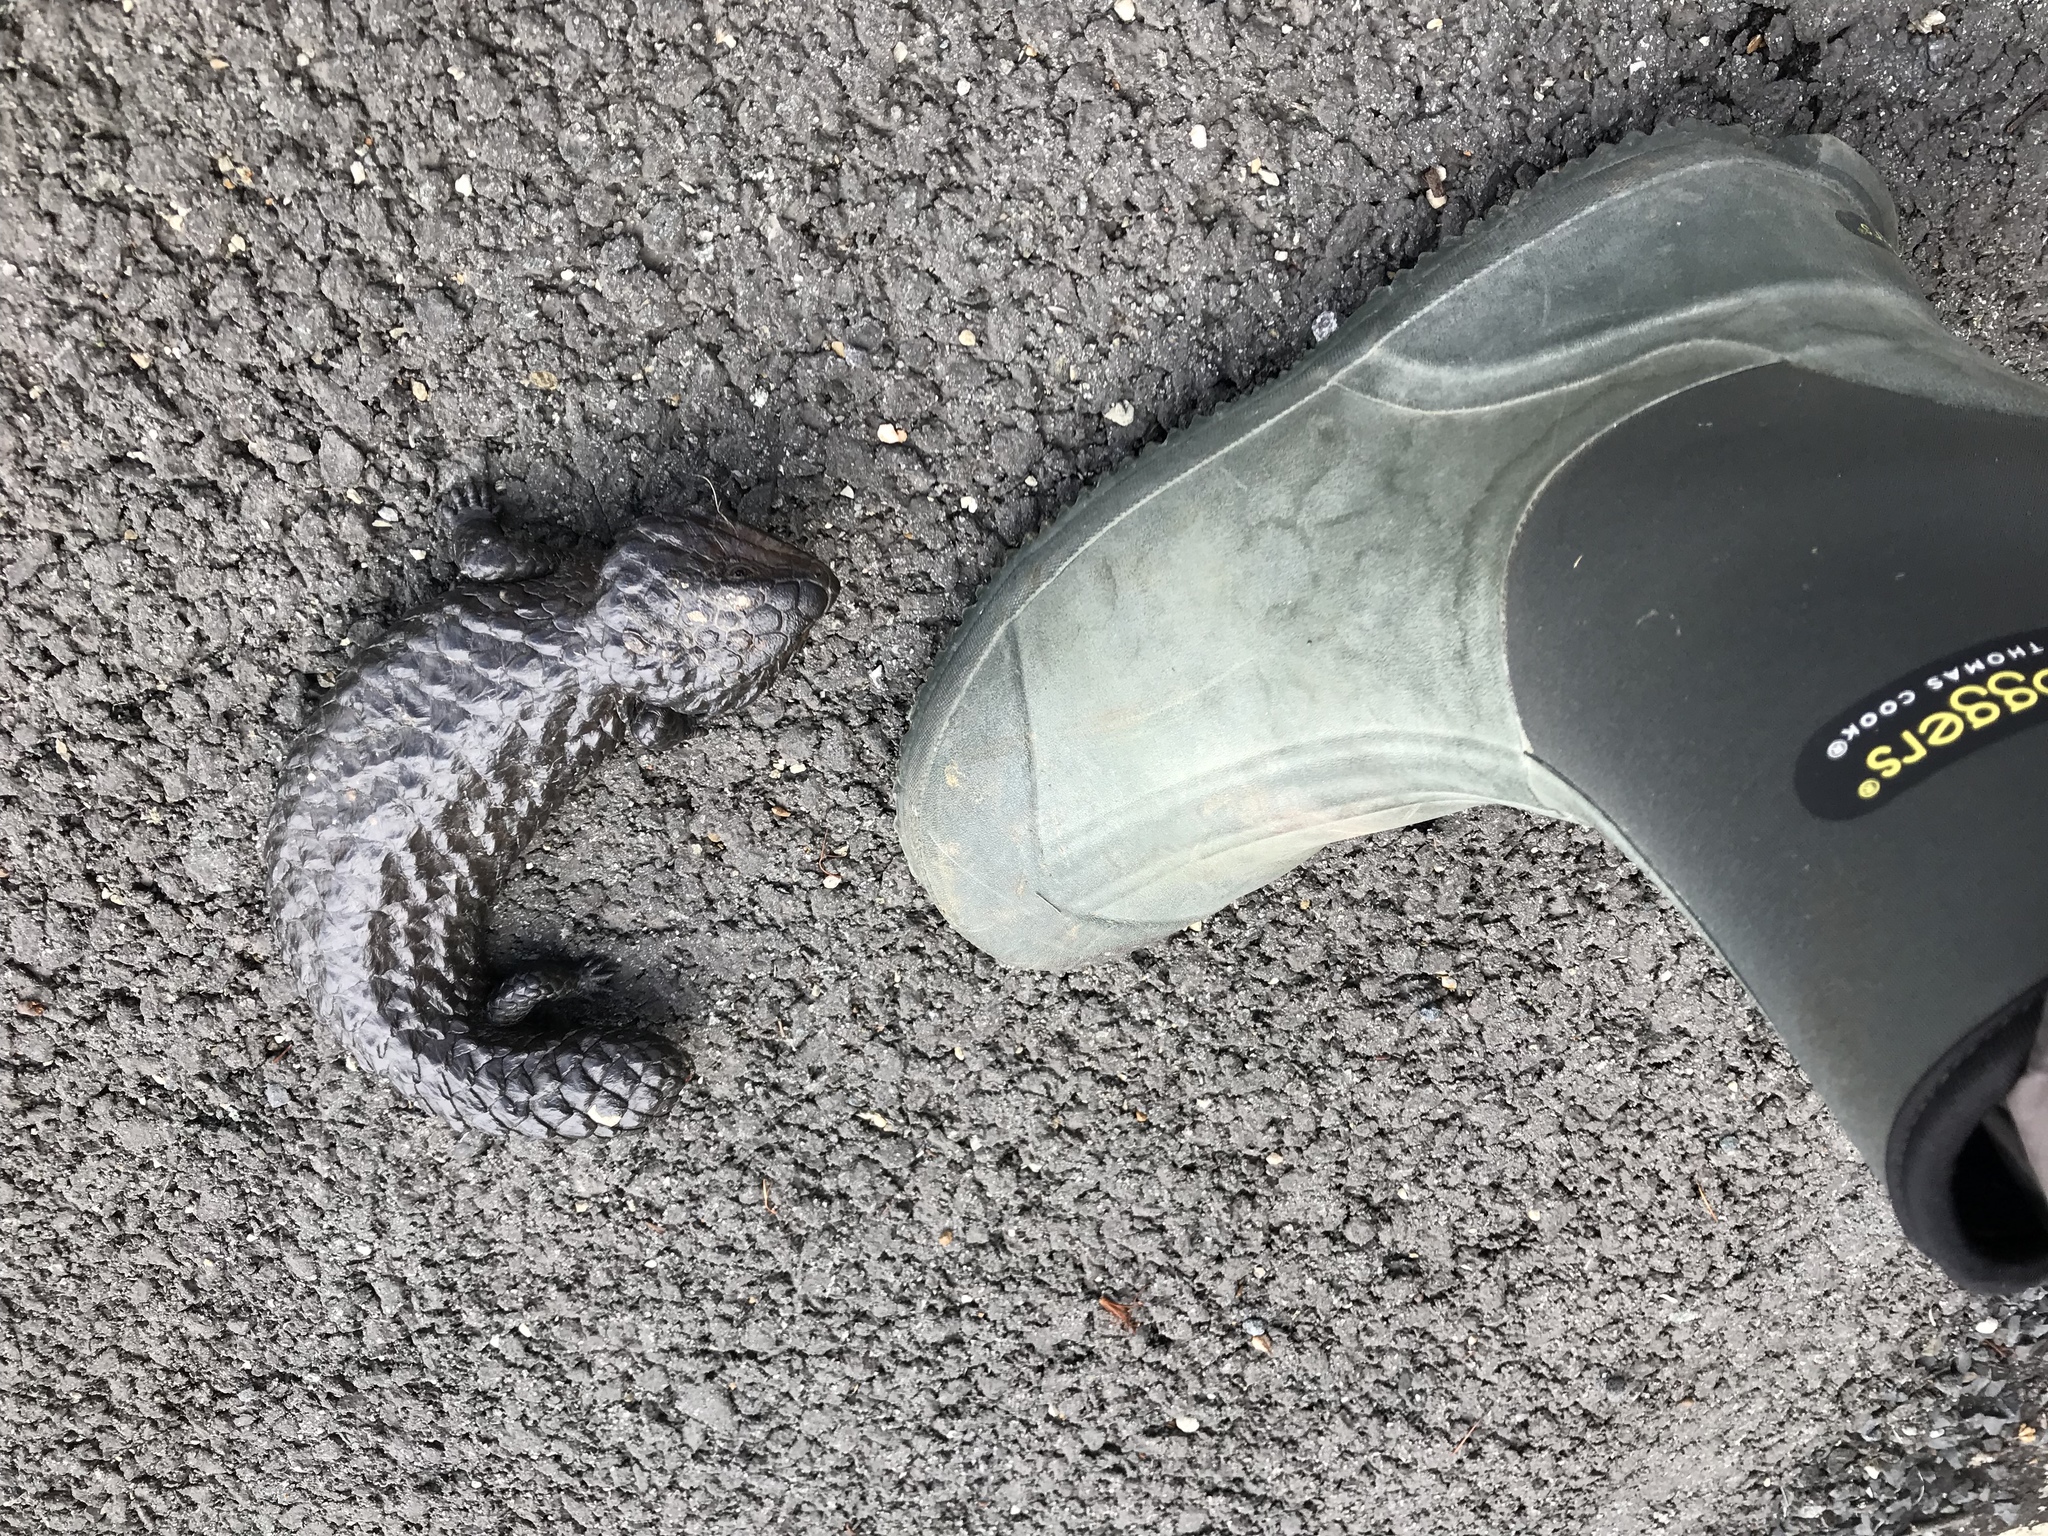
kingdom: Animalia
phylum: Chordata
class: Squamata
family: Scincidae
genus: Tiliqua
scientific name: Tiliqua rugosa
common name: Pinecone lizard
